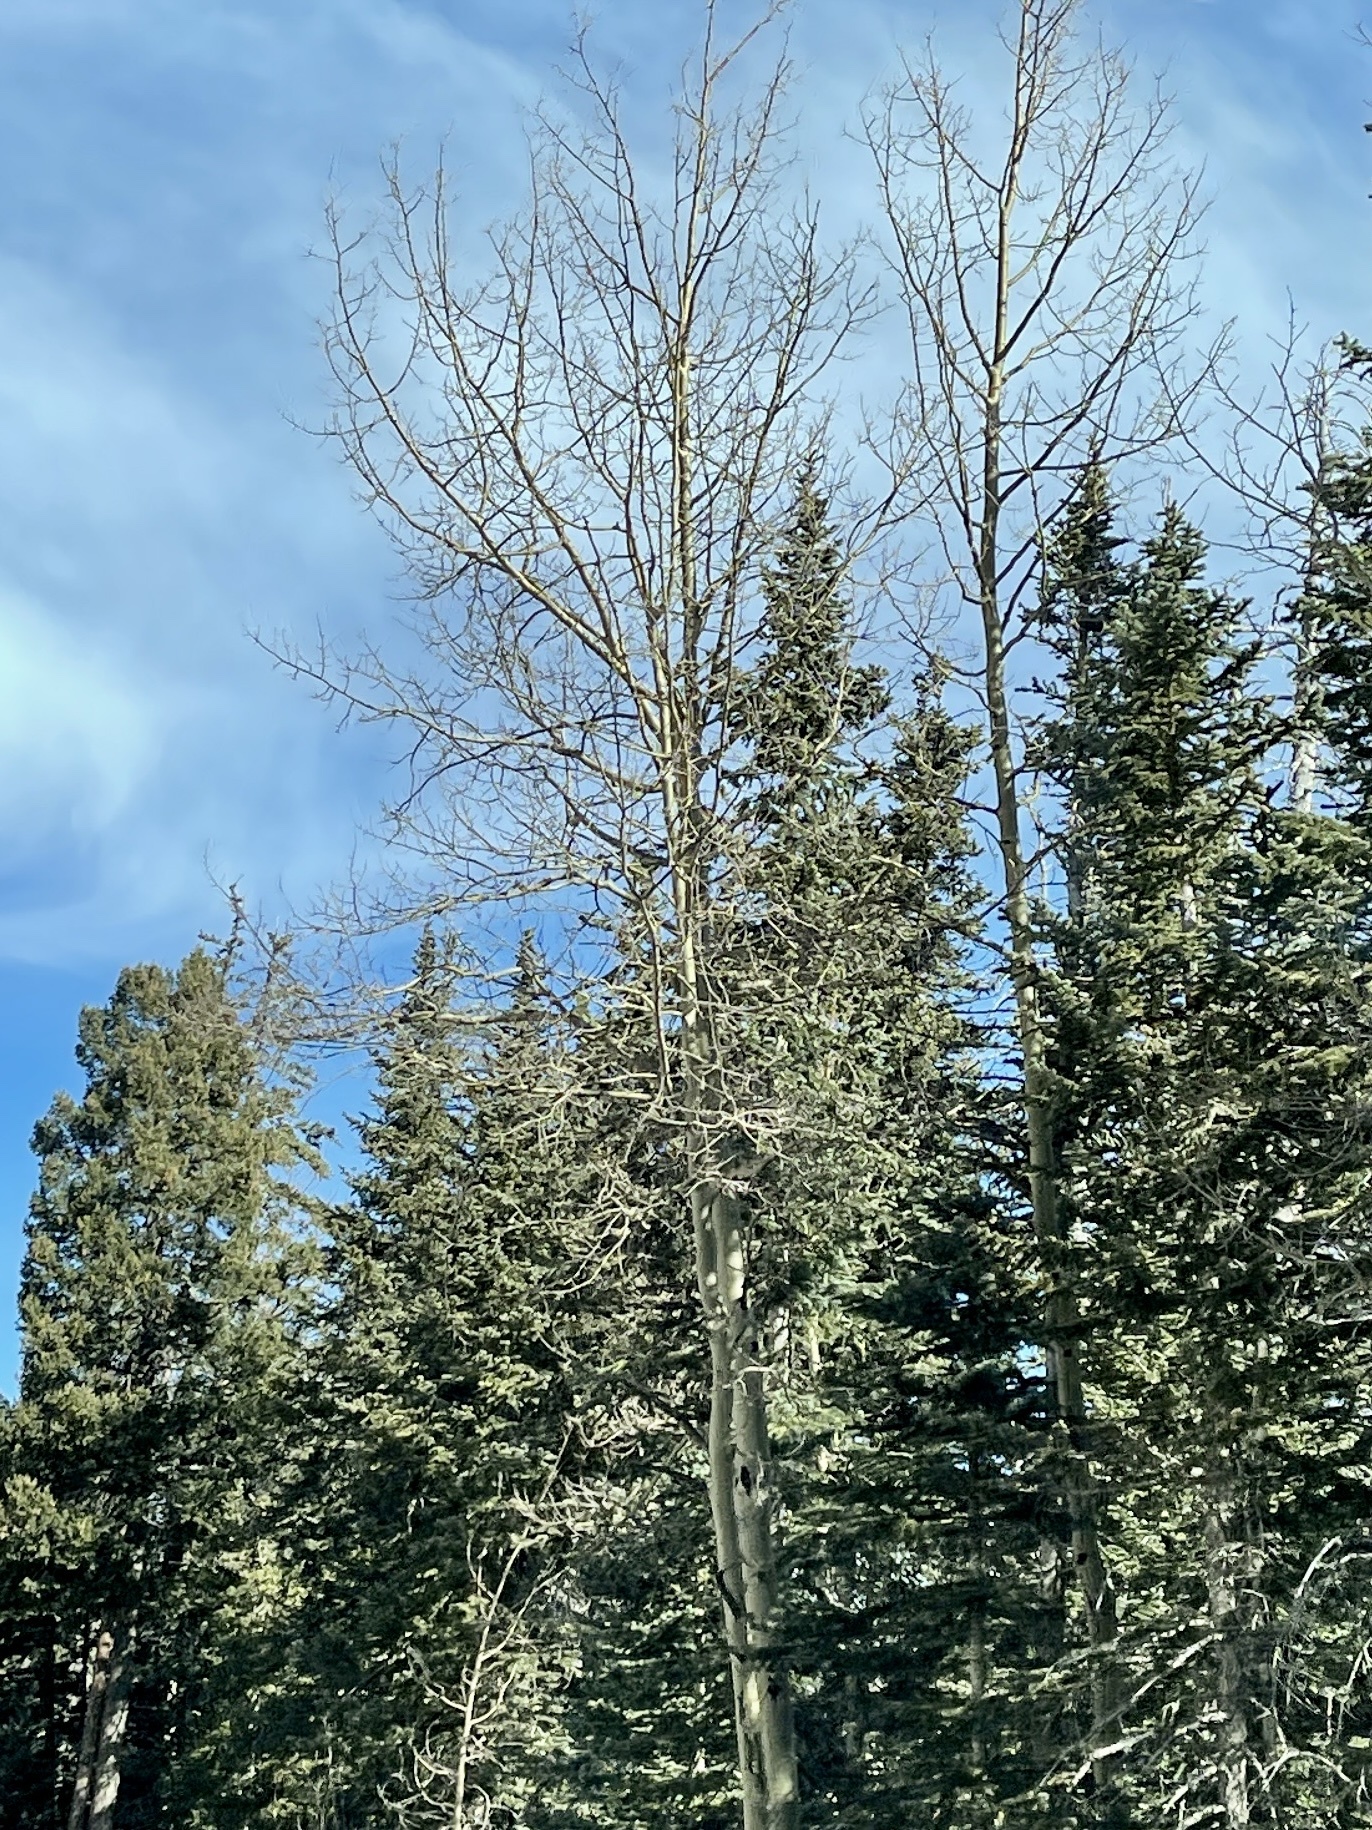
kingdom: Plantae
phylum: Tracheophyta
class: Magnoliopsida
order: Malpighiales
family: Salicaceae
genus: Populus
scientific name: Populus tremuloides
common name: Quaking aspen
